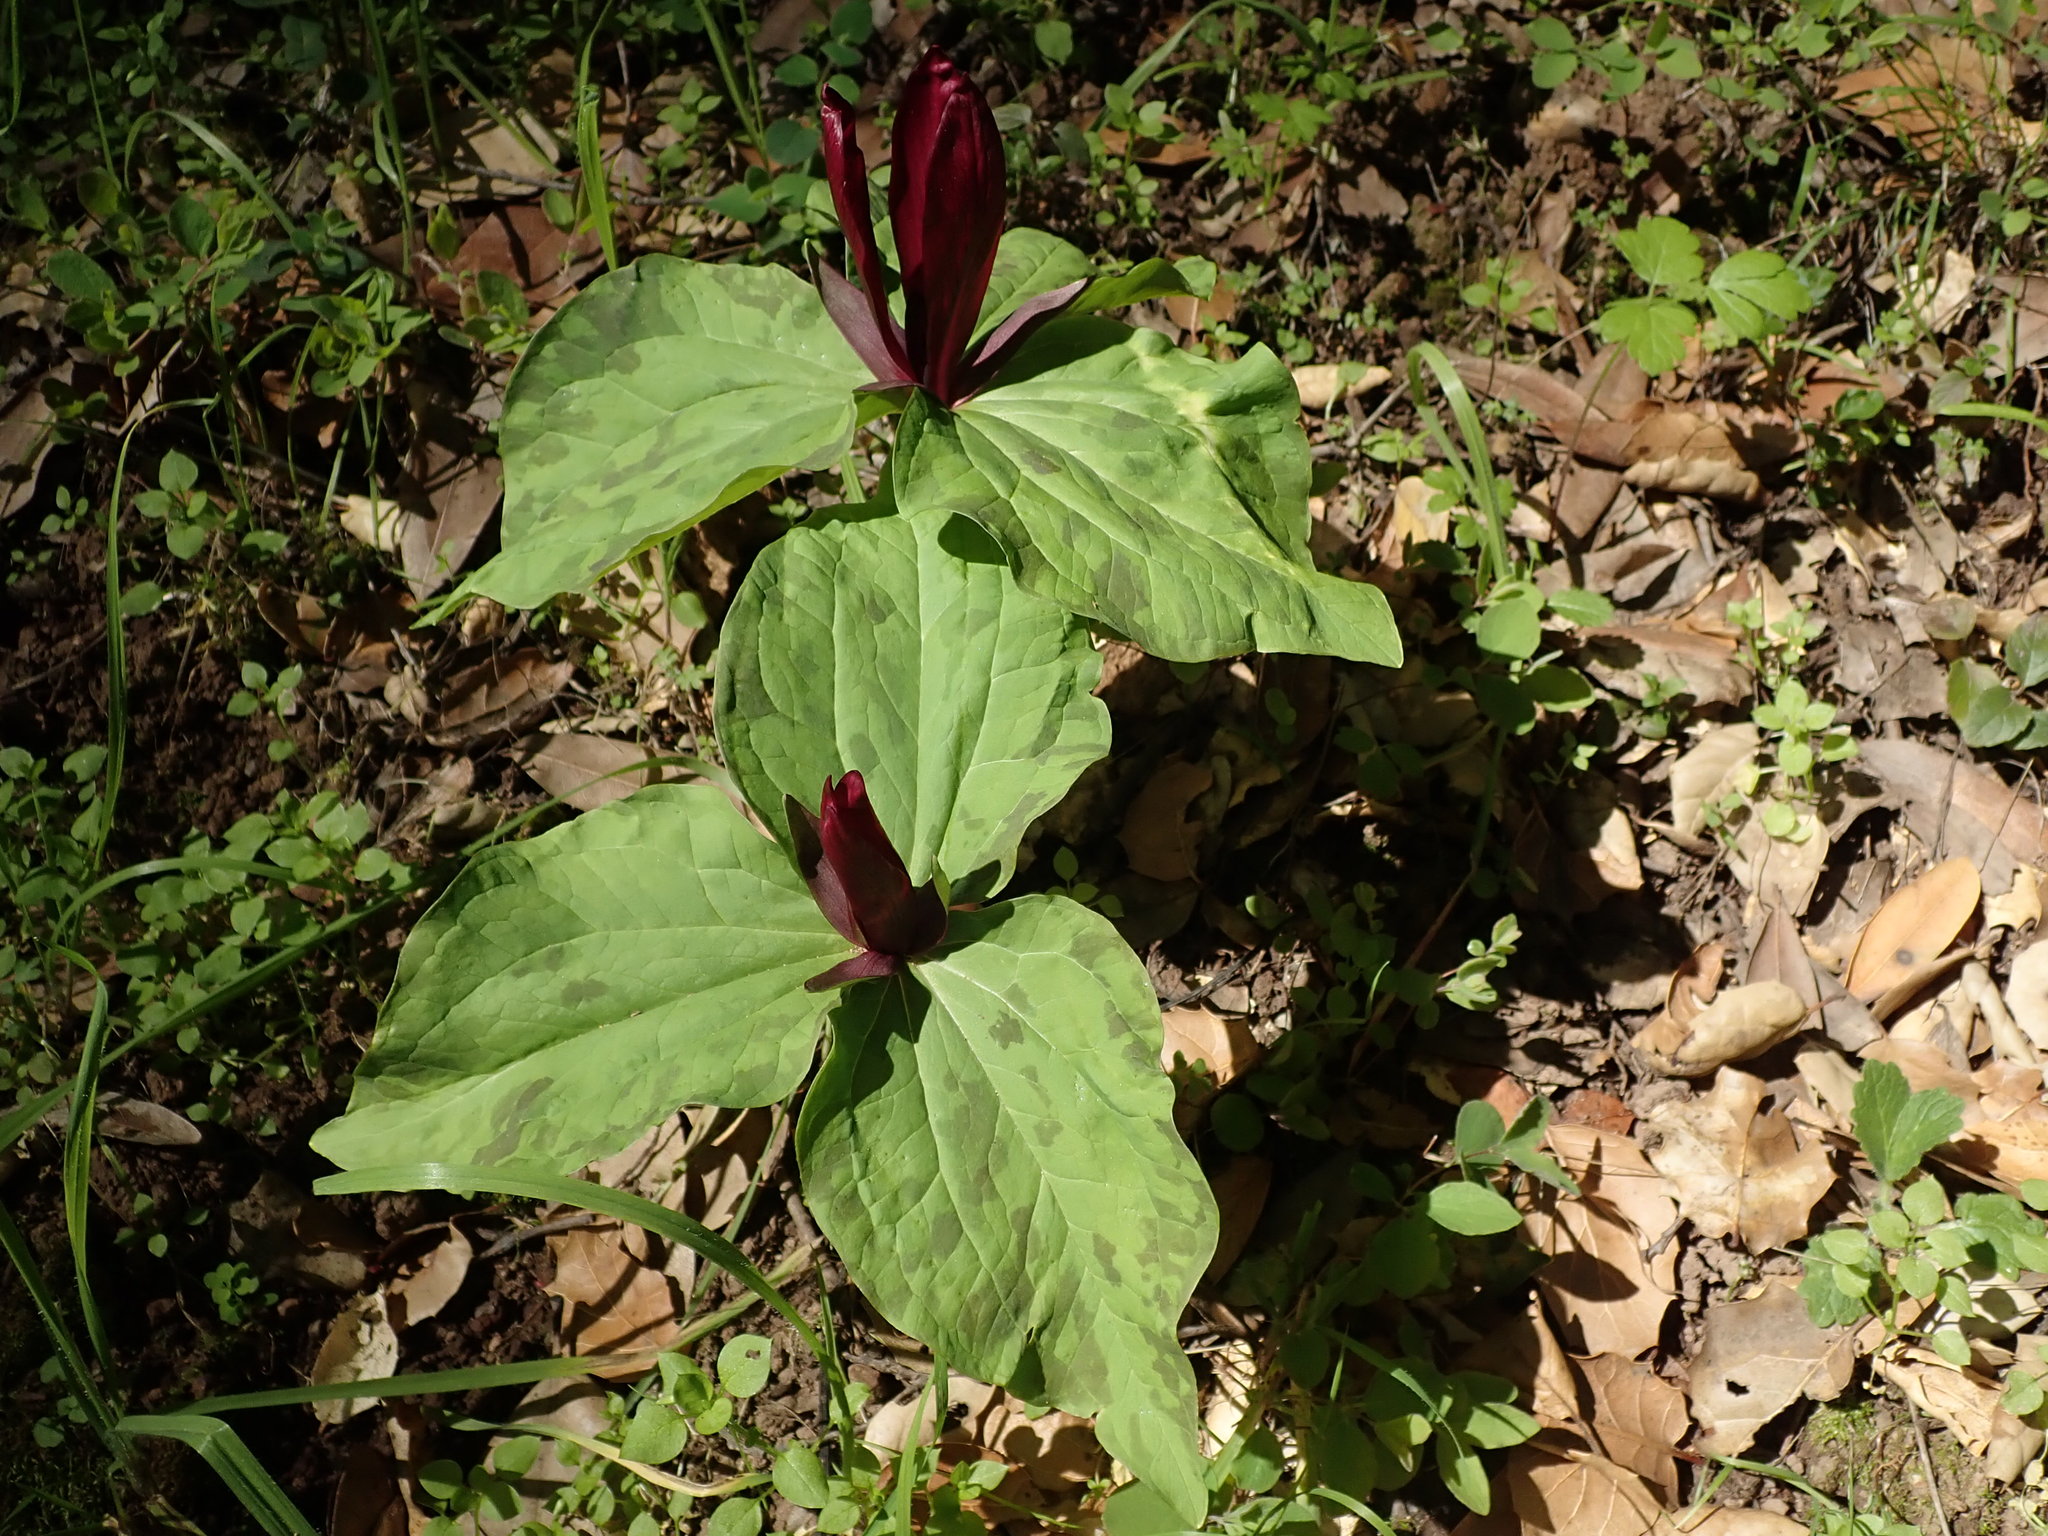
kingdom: Plantae
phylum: Tracheophyta
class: Liliopsida
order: Liliales
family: Melanthiaceae
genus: Trillium
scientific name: Trillium chloropetalum
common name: Giant trillium
